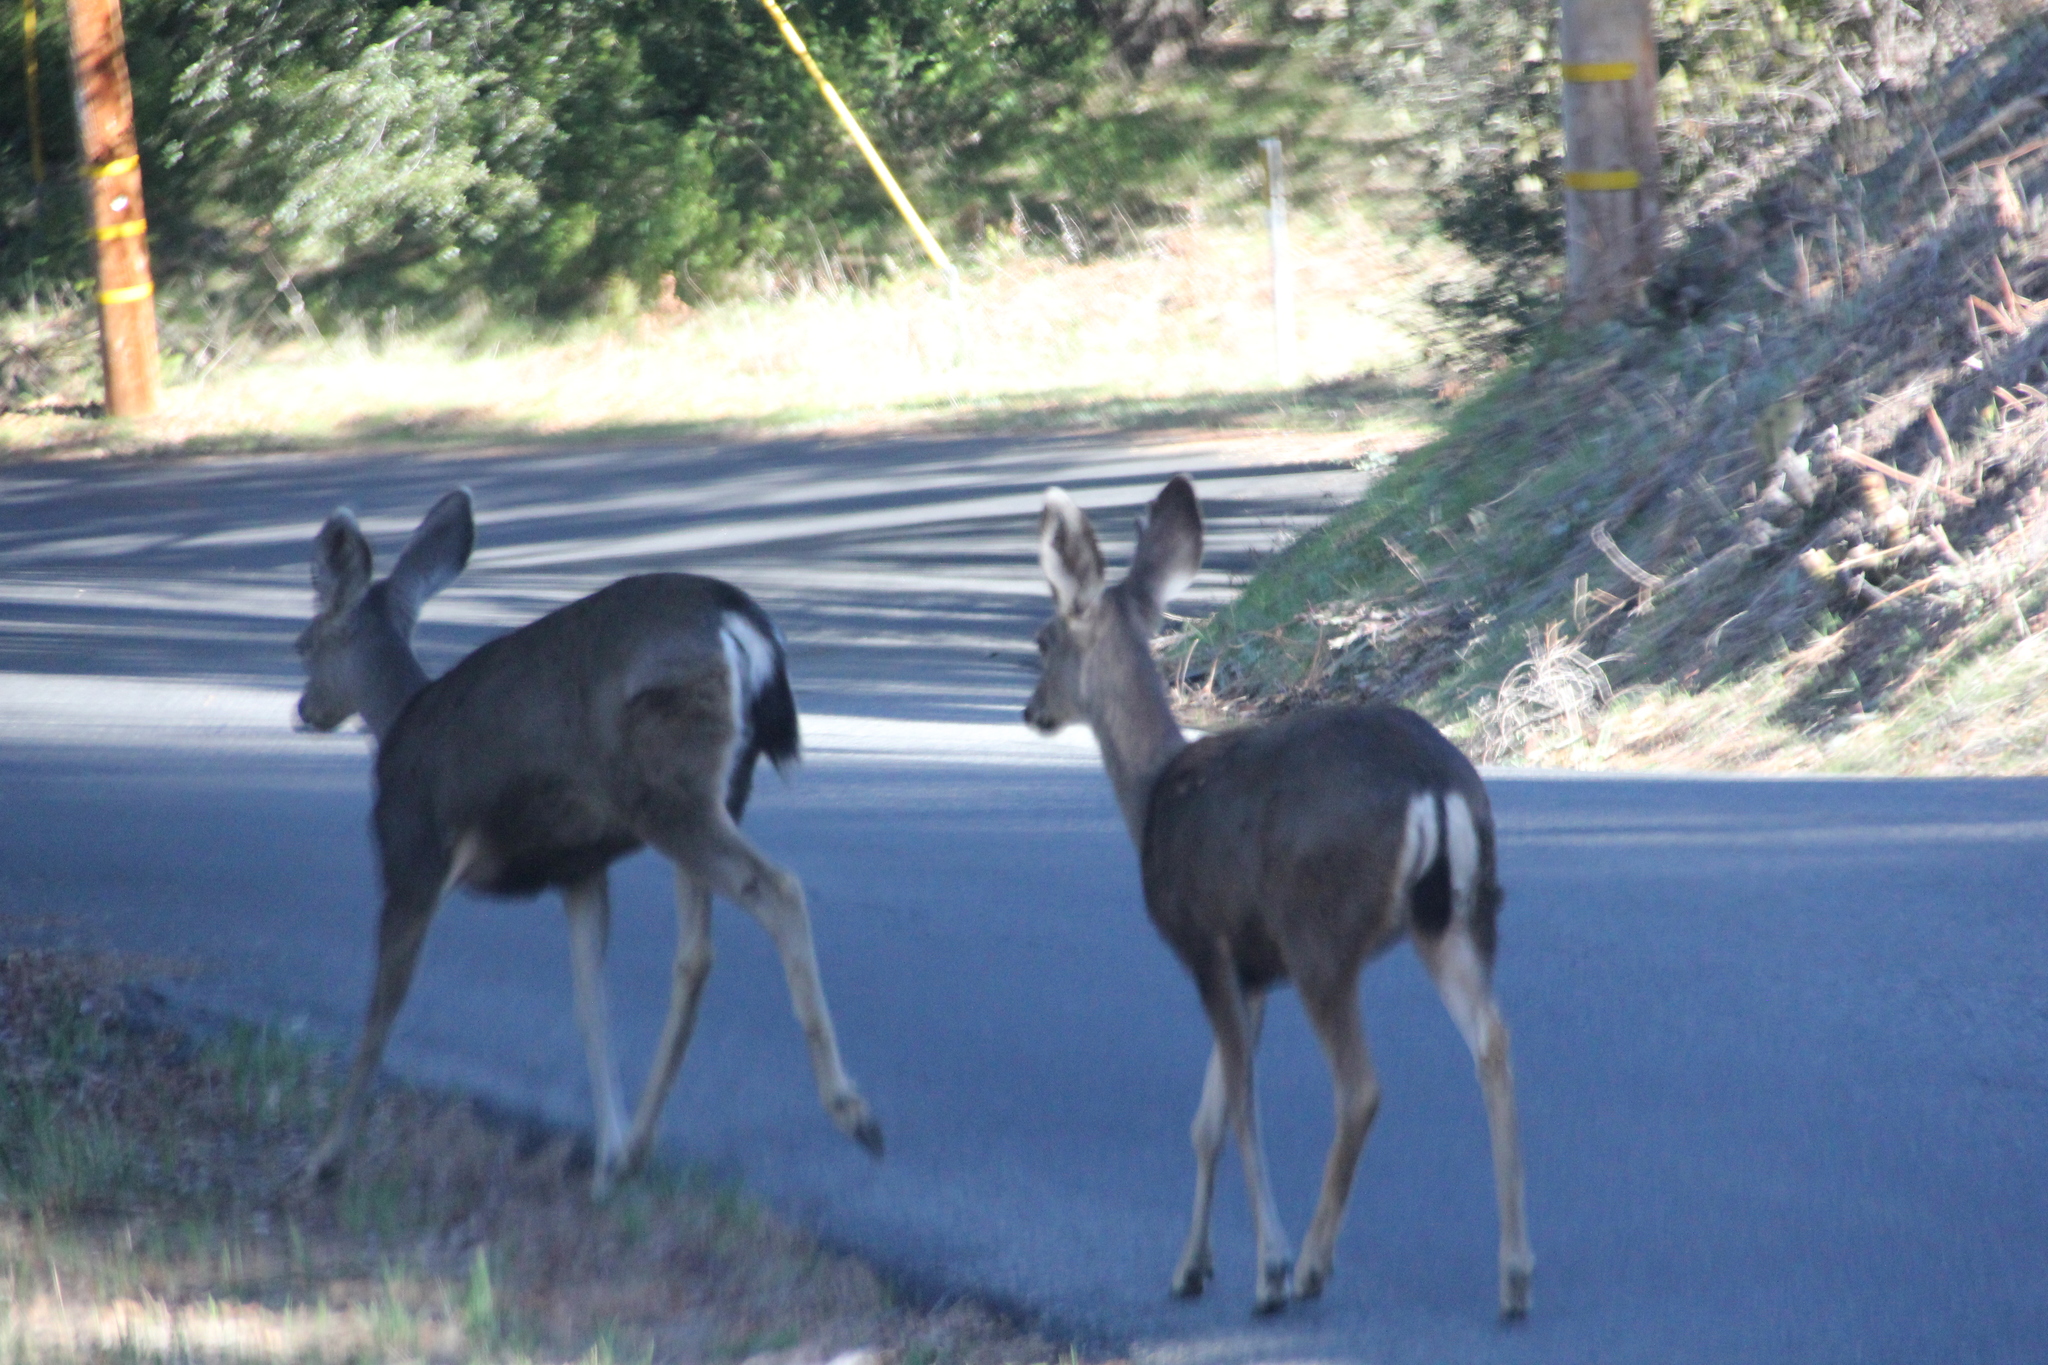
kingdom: Animalia
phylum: Chordata
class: Mammalia
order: Artiodactyla
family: Cervidae
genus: Odocoileus
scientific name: Odocoileus hemionus
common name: Mule deer
